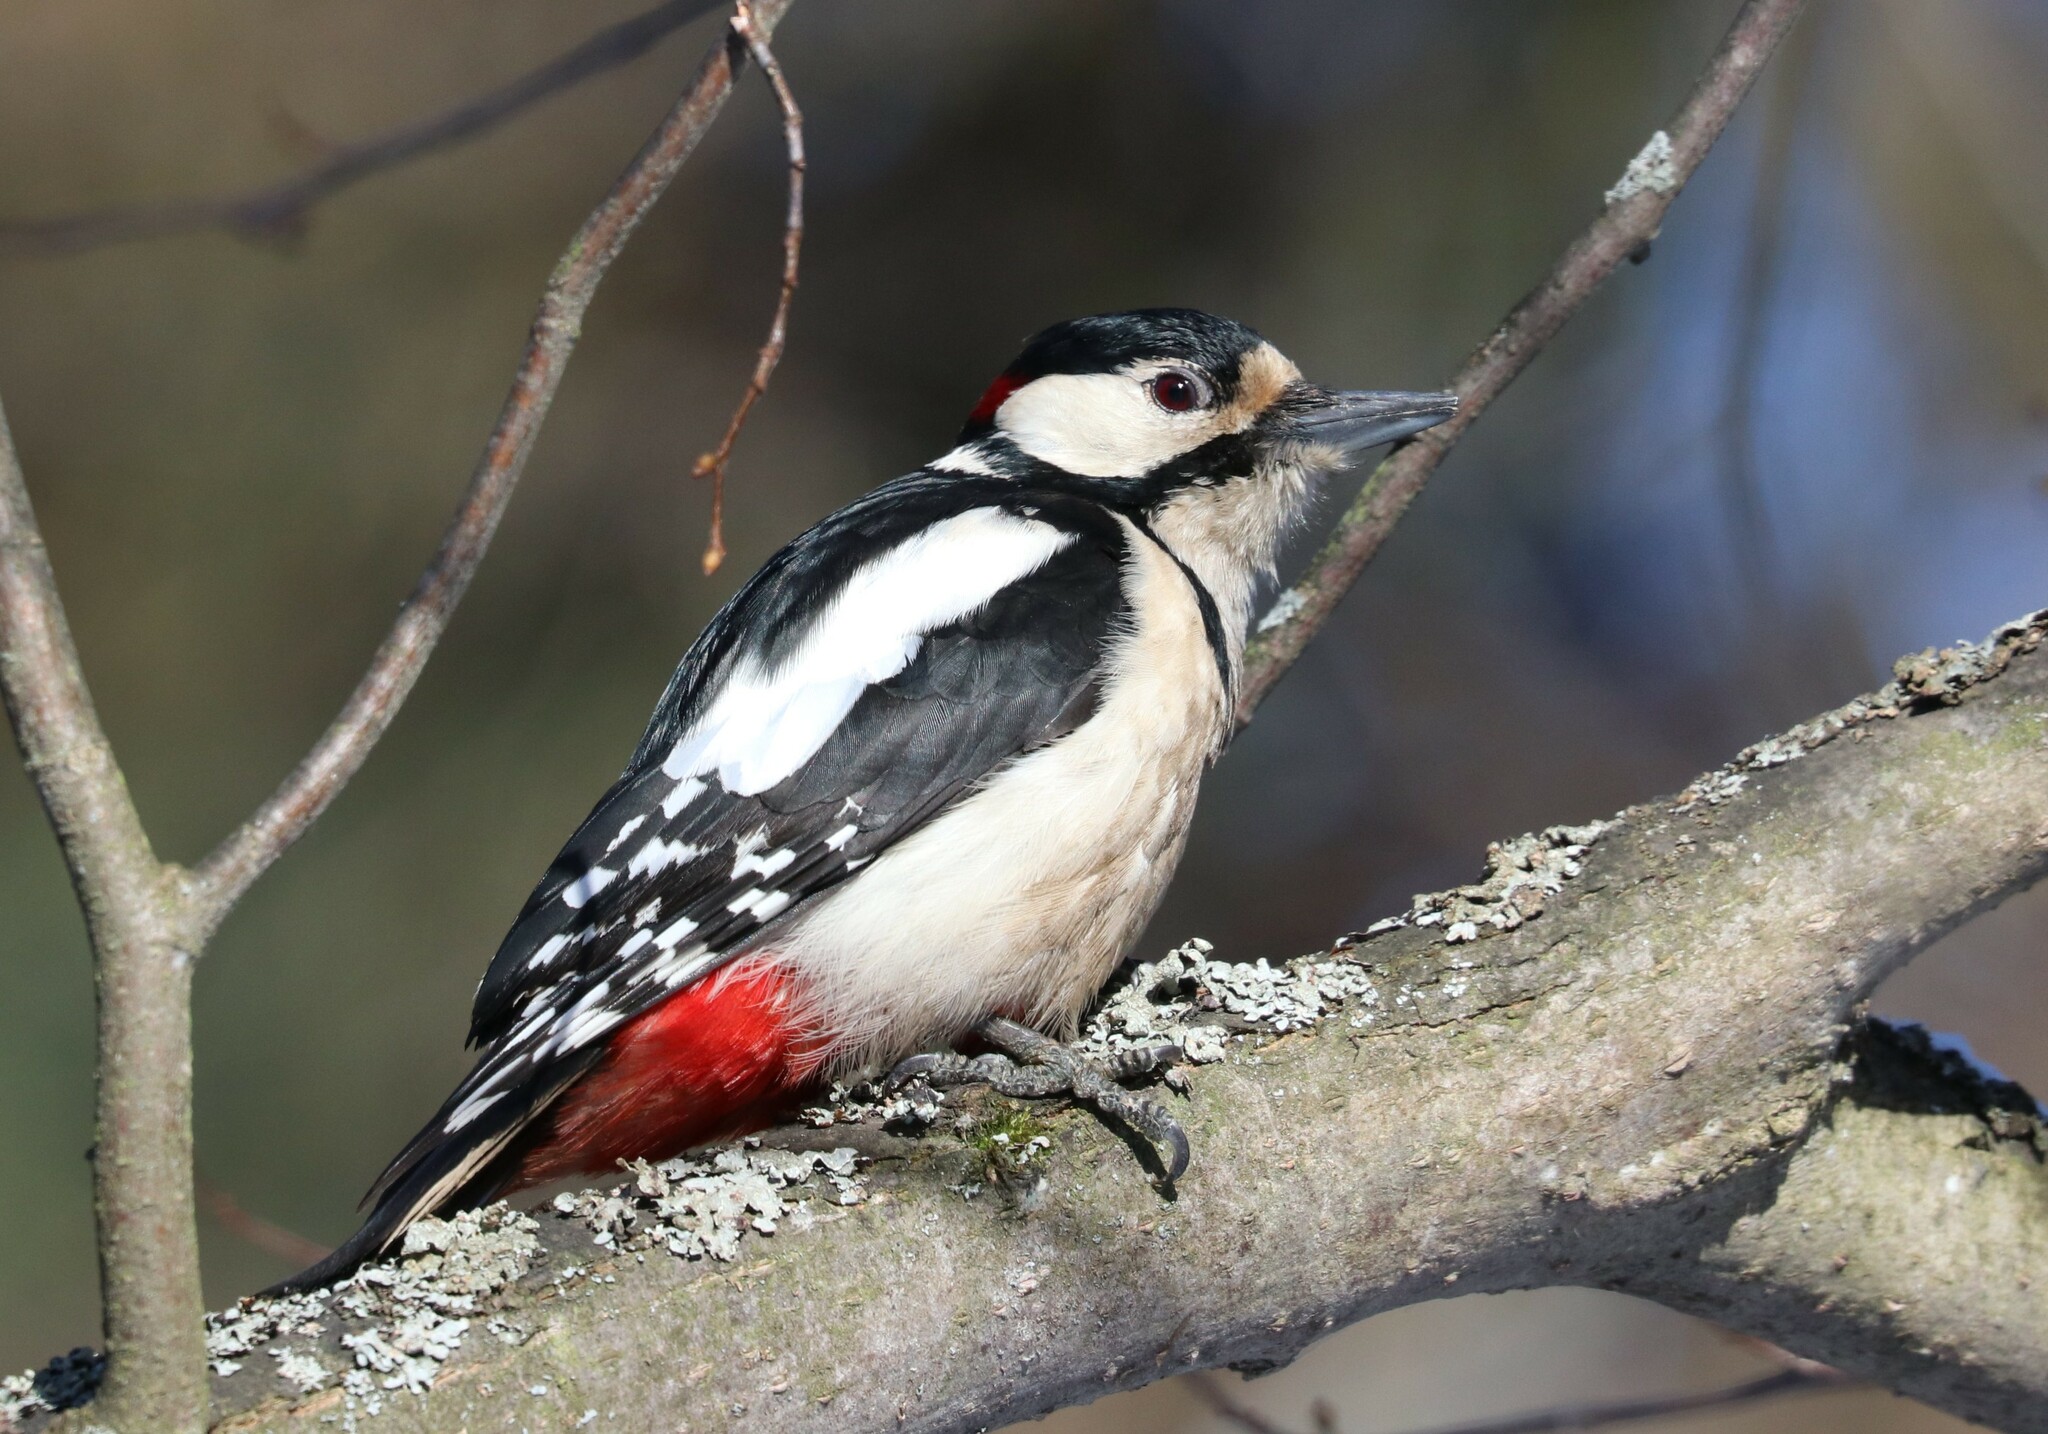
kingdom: Animalia
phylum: Chordata
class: Aves
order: Piciformes
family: Picidae
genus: Dendrocopos
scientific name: Dendrocopos major
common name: Great spotted woodpecker
